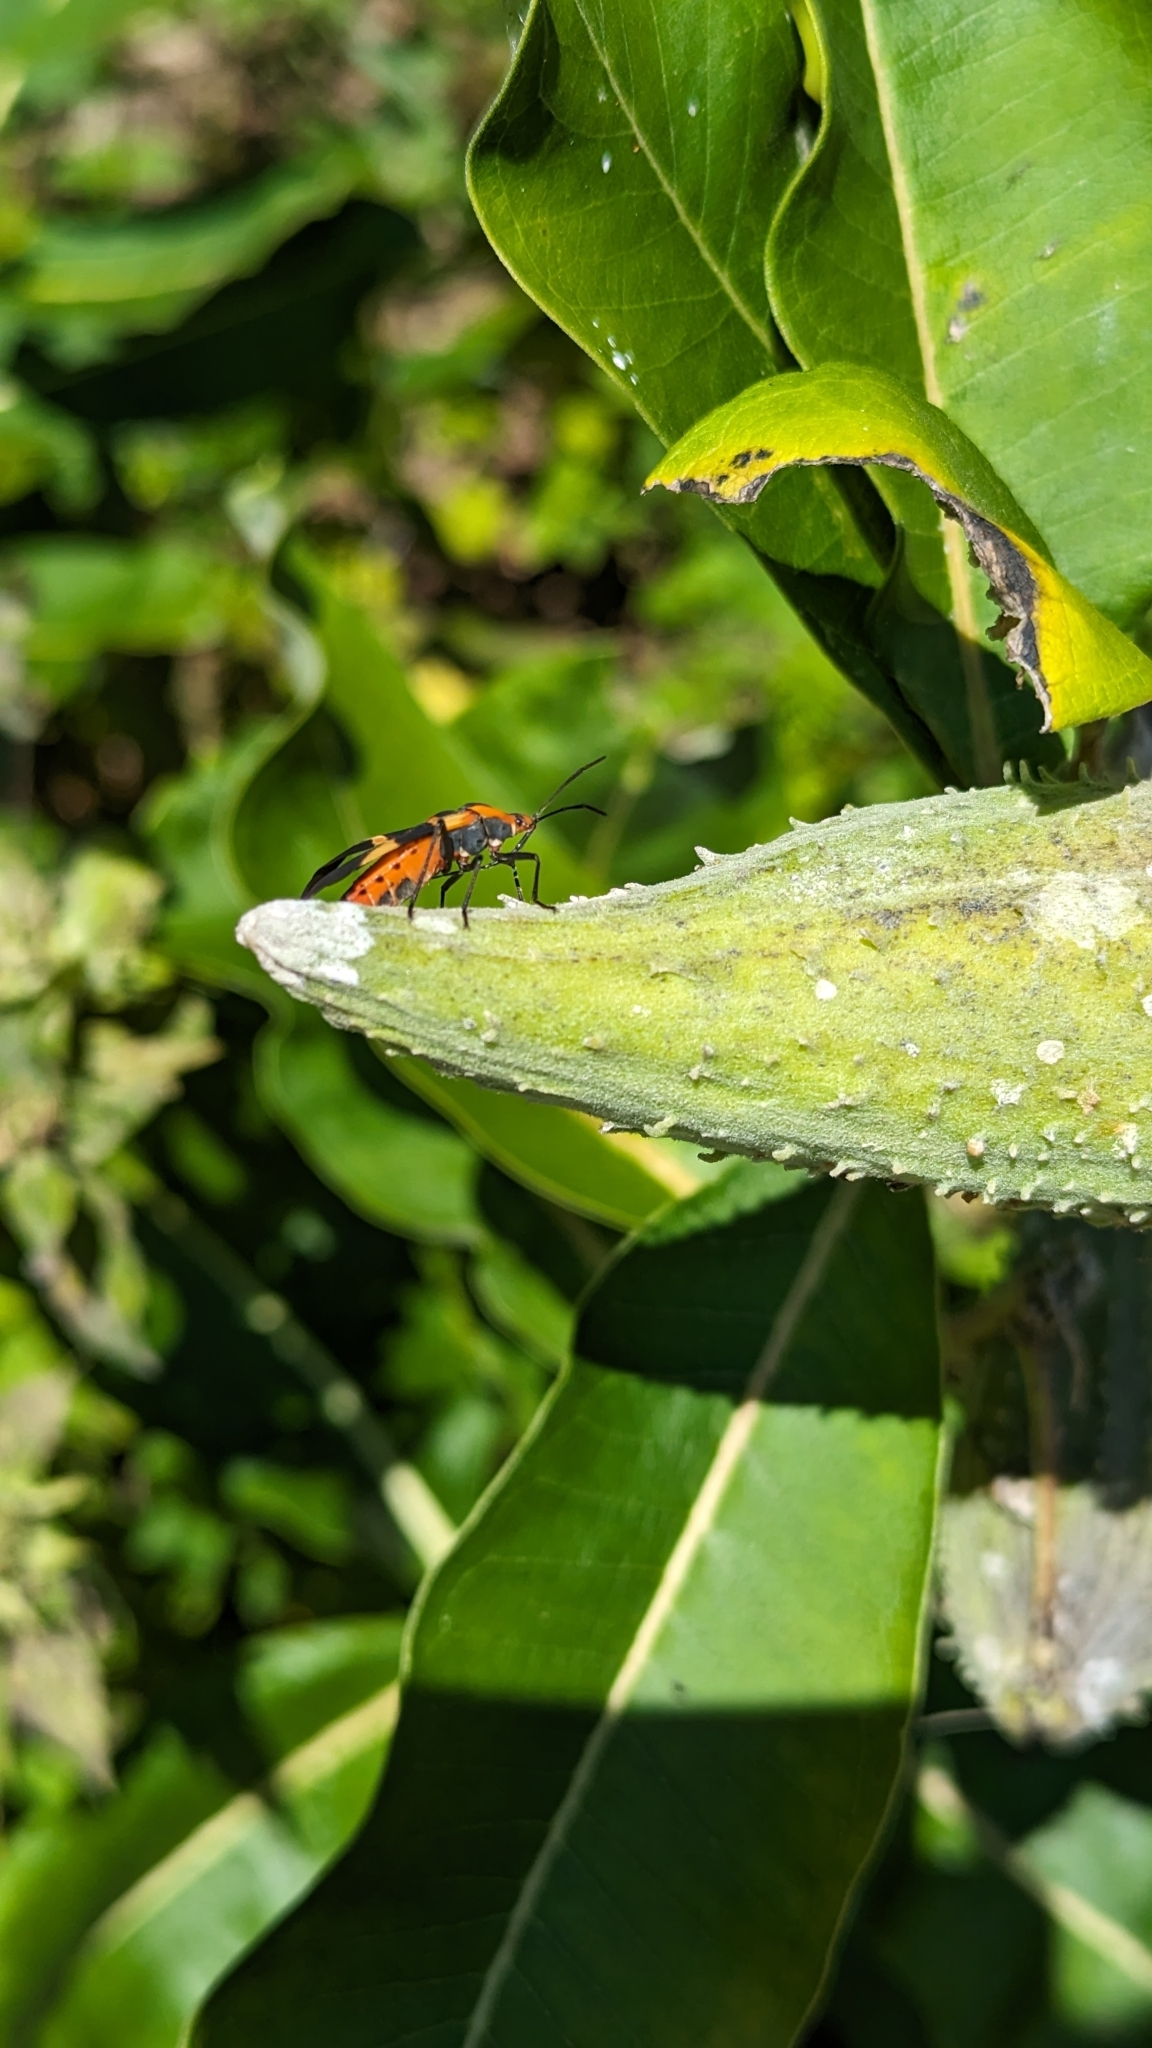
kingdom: Animalia
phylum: Arthropoda
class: Insecta
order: Hemiptera
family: Lygaeidae
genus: Oncopeltus
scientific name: Oncopeltus fasciatus
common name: Large milkweed bug
